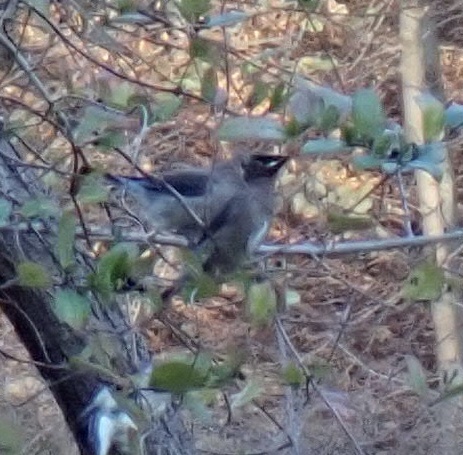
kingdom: Animalia
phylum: Chordata
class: Aves
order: Passeriformes
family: Bombycillidae
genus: Bombycilla
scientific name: Bombycilla cedrorum
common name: Cedar waxwing
